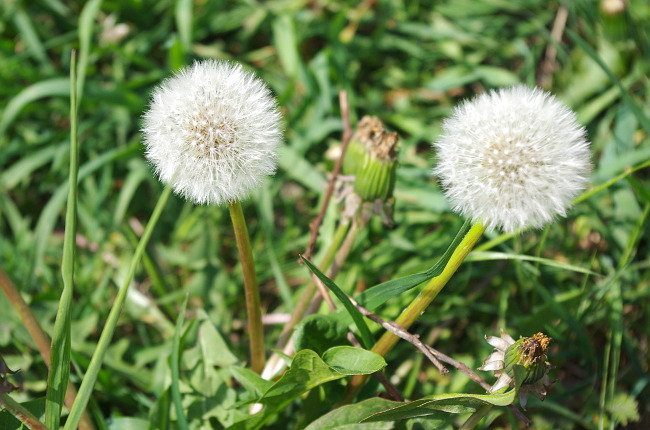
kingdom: Plantae
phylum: Tracheophyta
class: Magnoliopsida
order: Asterales
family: Asteraceae
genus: Taraxacum
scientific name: Taraxacum officinale
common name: Common dandelion
